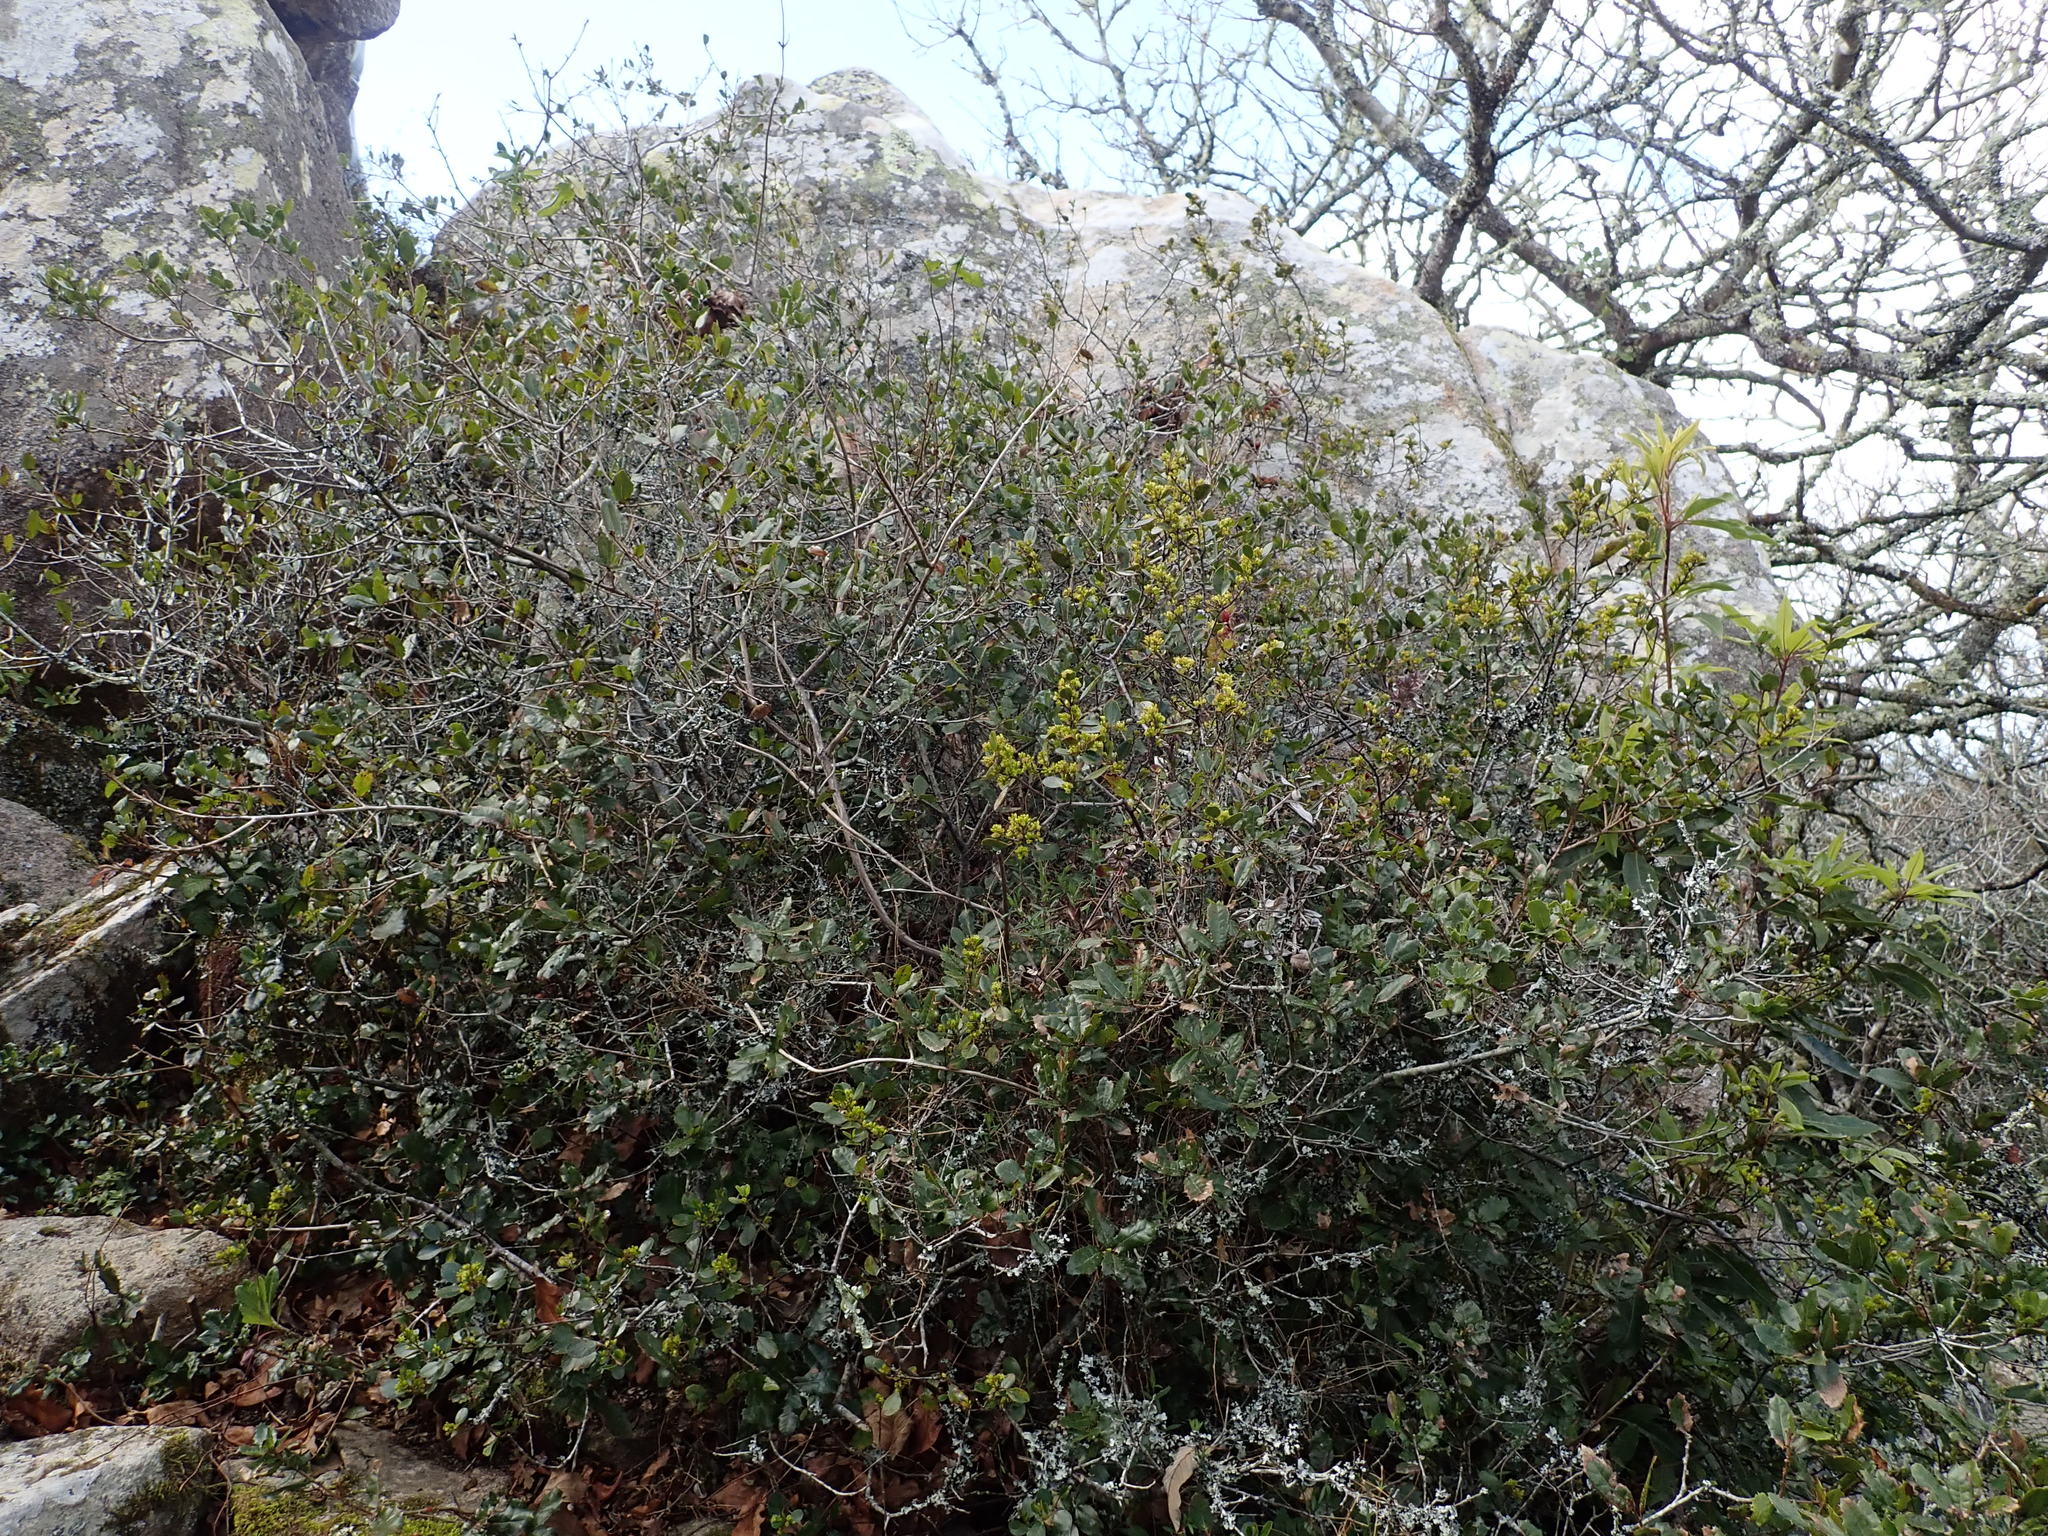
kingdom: Plantae
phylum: Tracheophyta
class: Magnoliopsida
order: Rosales
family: Rhamnaceae
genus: Rhamnus
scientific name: Rhamnus alaternus
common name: Mediterranean buckthorn
